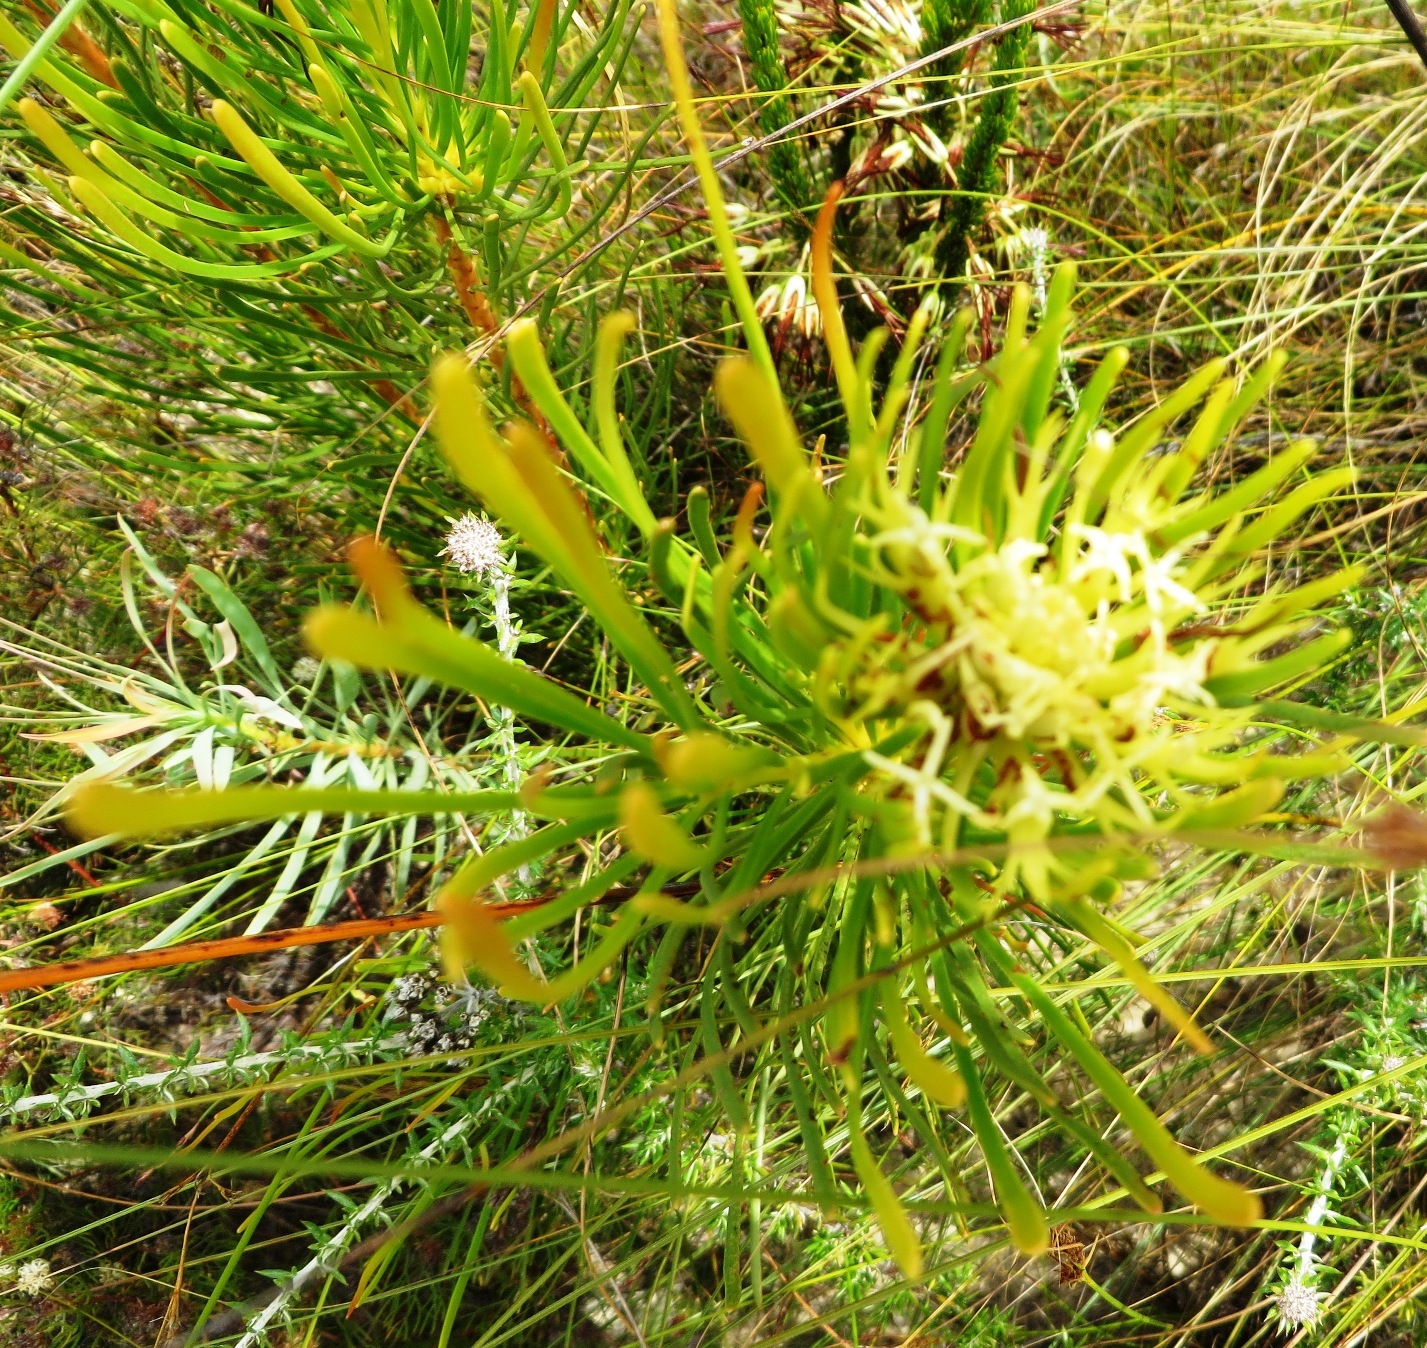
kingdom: Plantae
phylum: Tracheophyta
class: Magnoliopsida
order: Proteales
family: Proteaceae
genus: Aulax
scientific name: Aulax pallasia
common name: Needle-leaf featherbush
